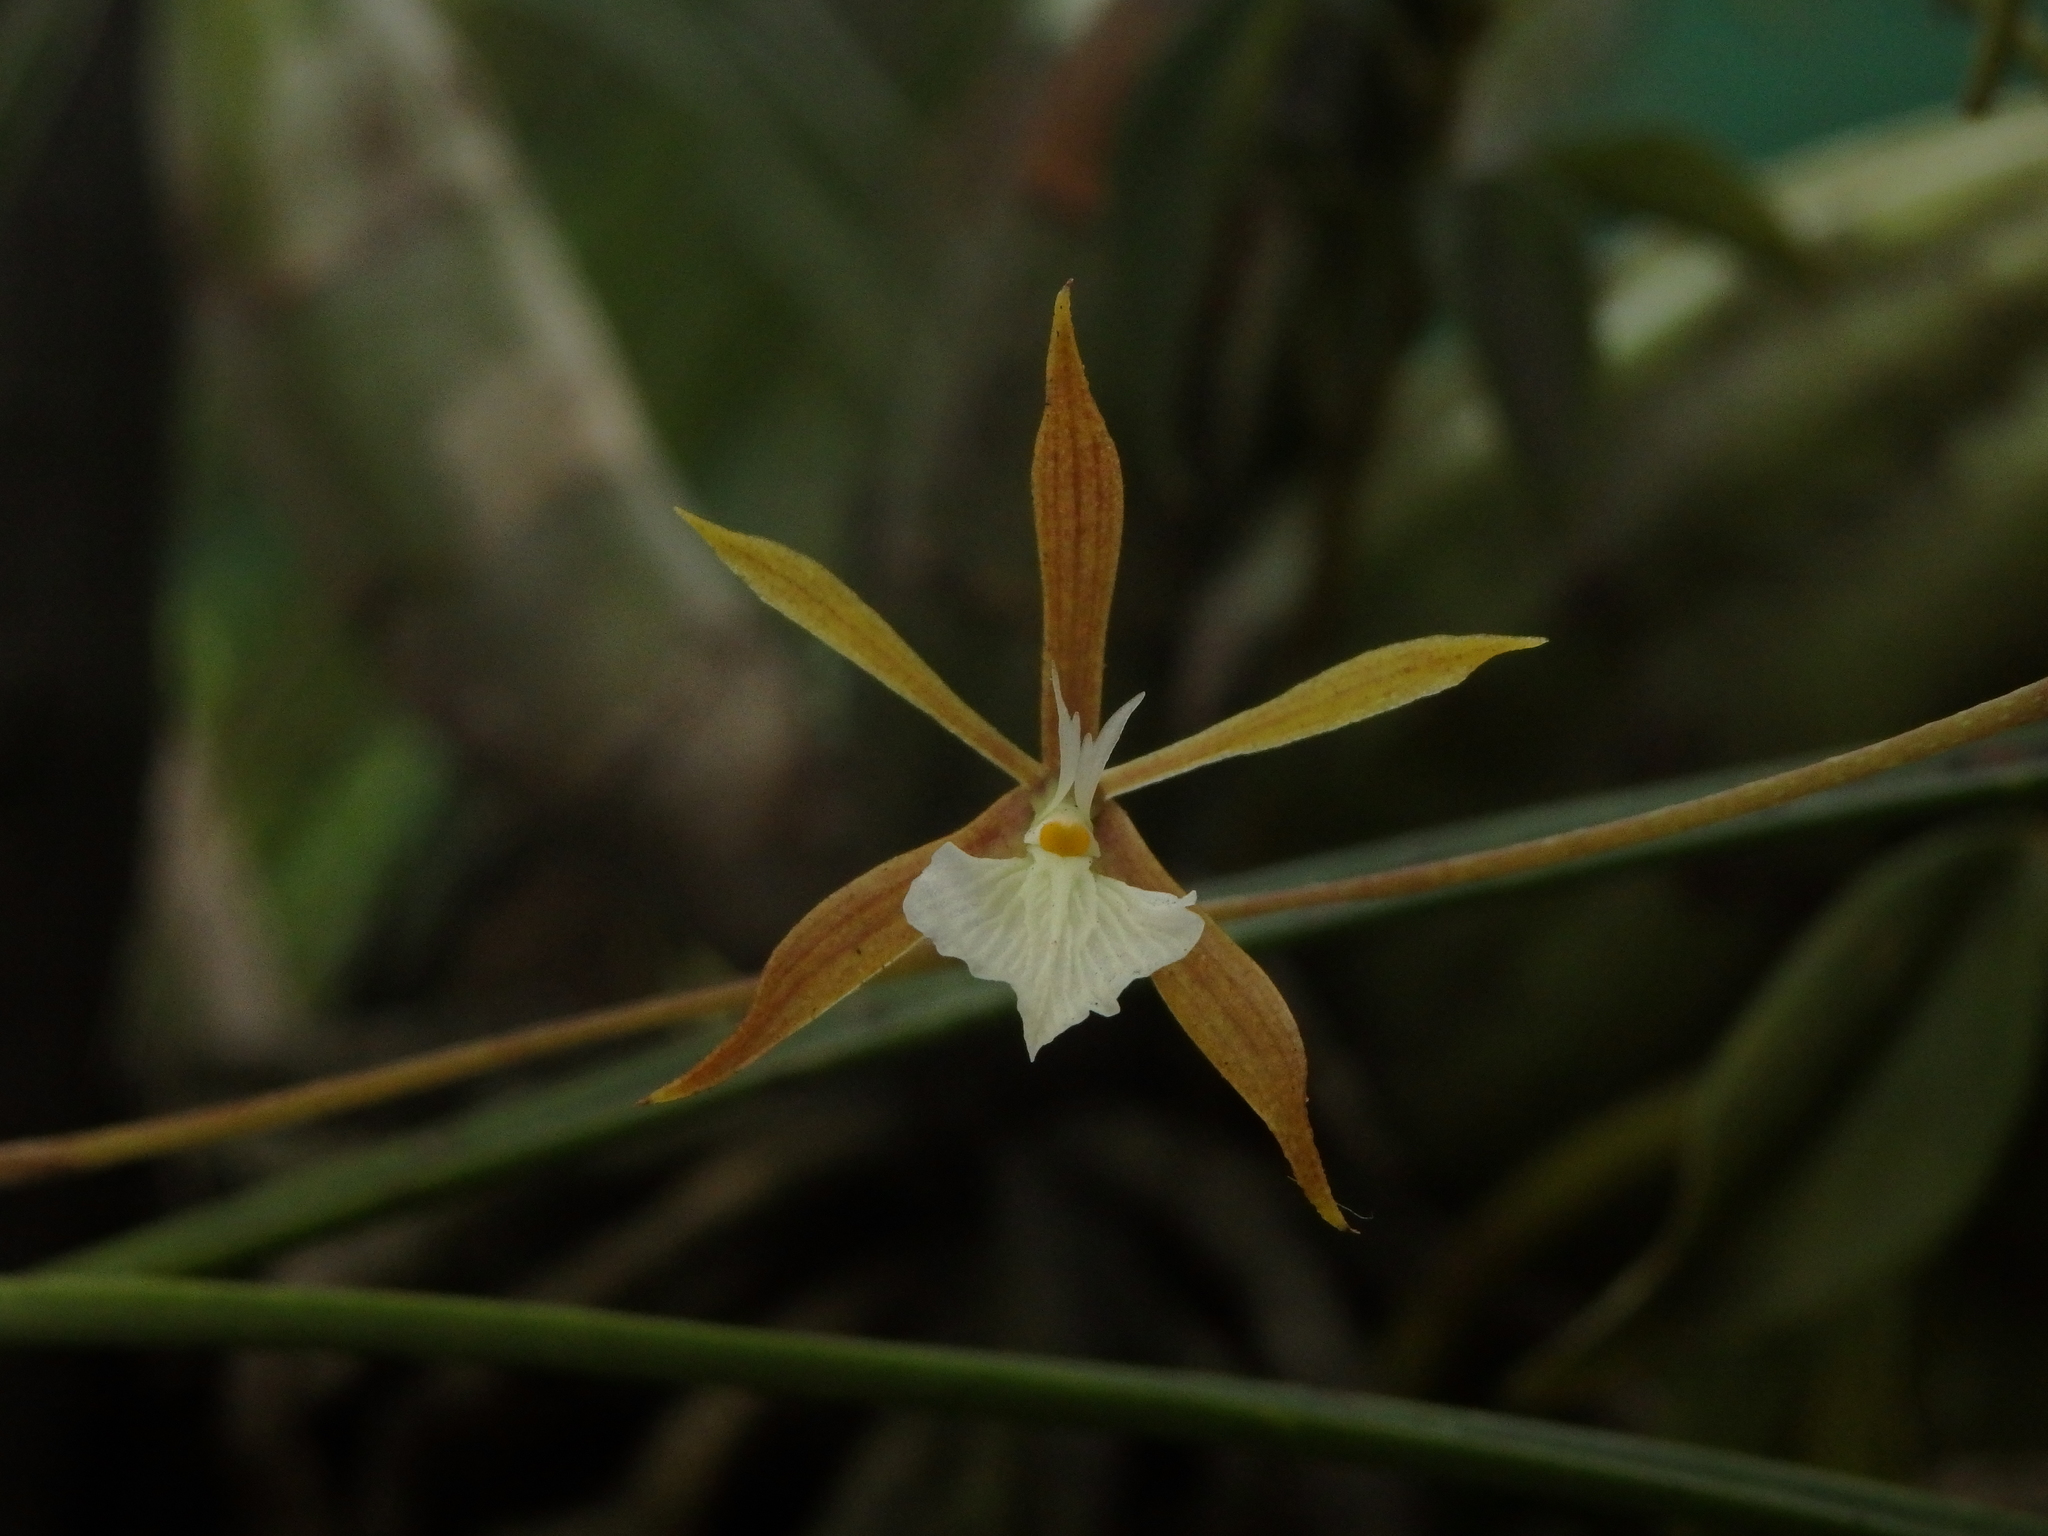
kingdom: Plantae
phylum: Tracheophyta
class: Liliopsida
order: Asparagales
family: Orchidaceae
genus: Encyclia
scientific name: Encyclia nematocaulon
